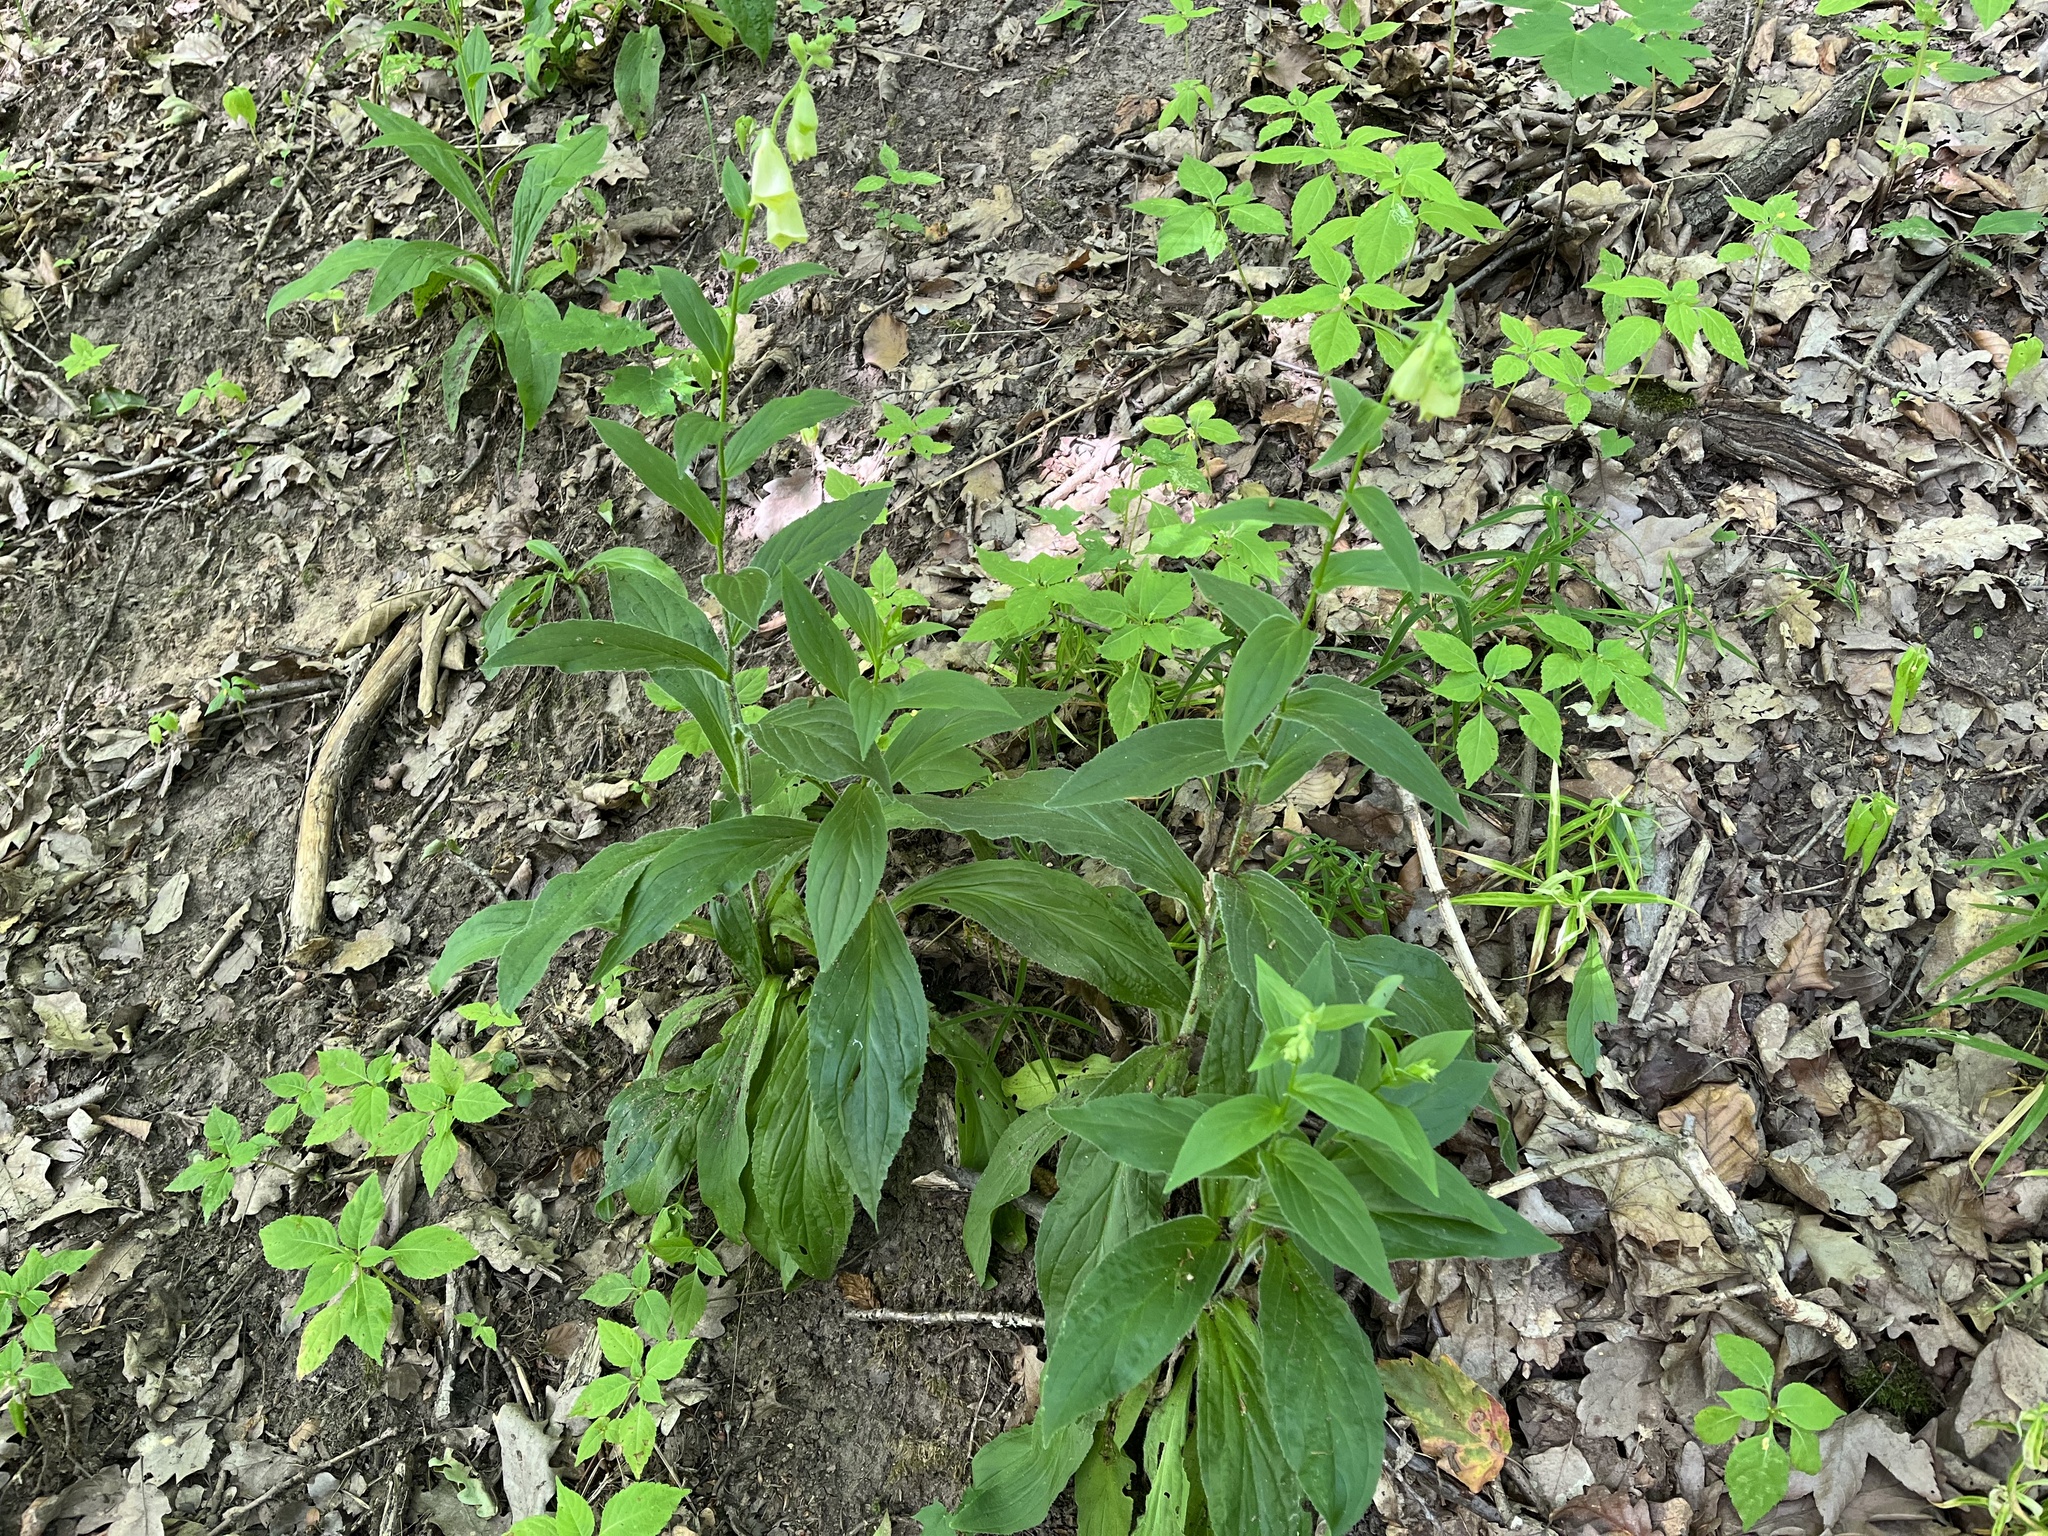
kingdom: Plantae
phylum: Tracheophyta
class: Magnoliopsida
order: Lamiales
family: Plantaginaceae
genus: Digitalis
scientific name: Digitalis grandiflora
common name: Yellow foxglove
